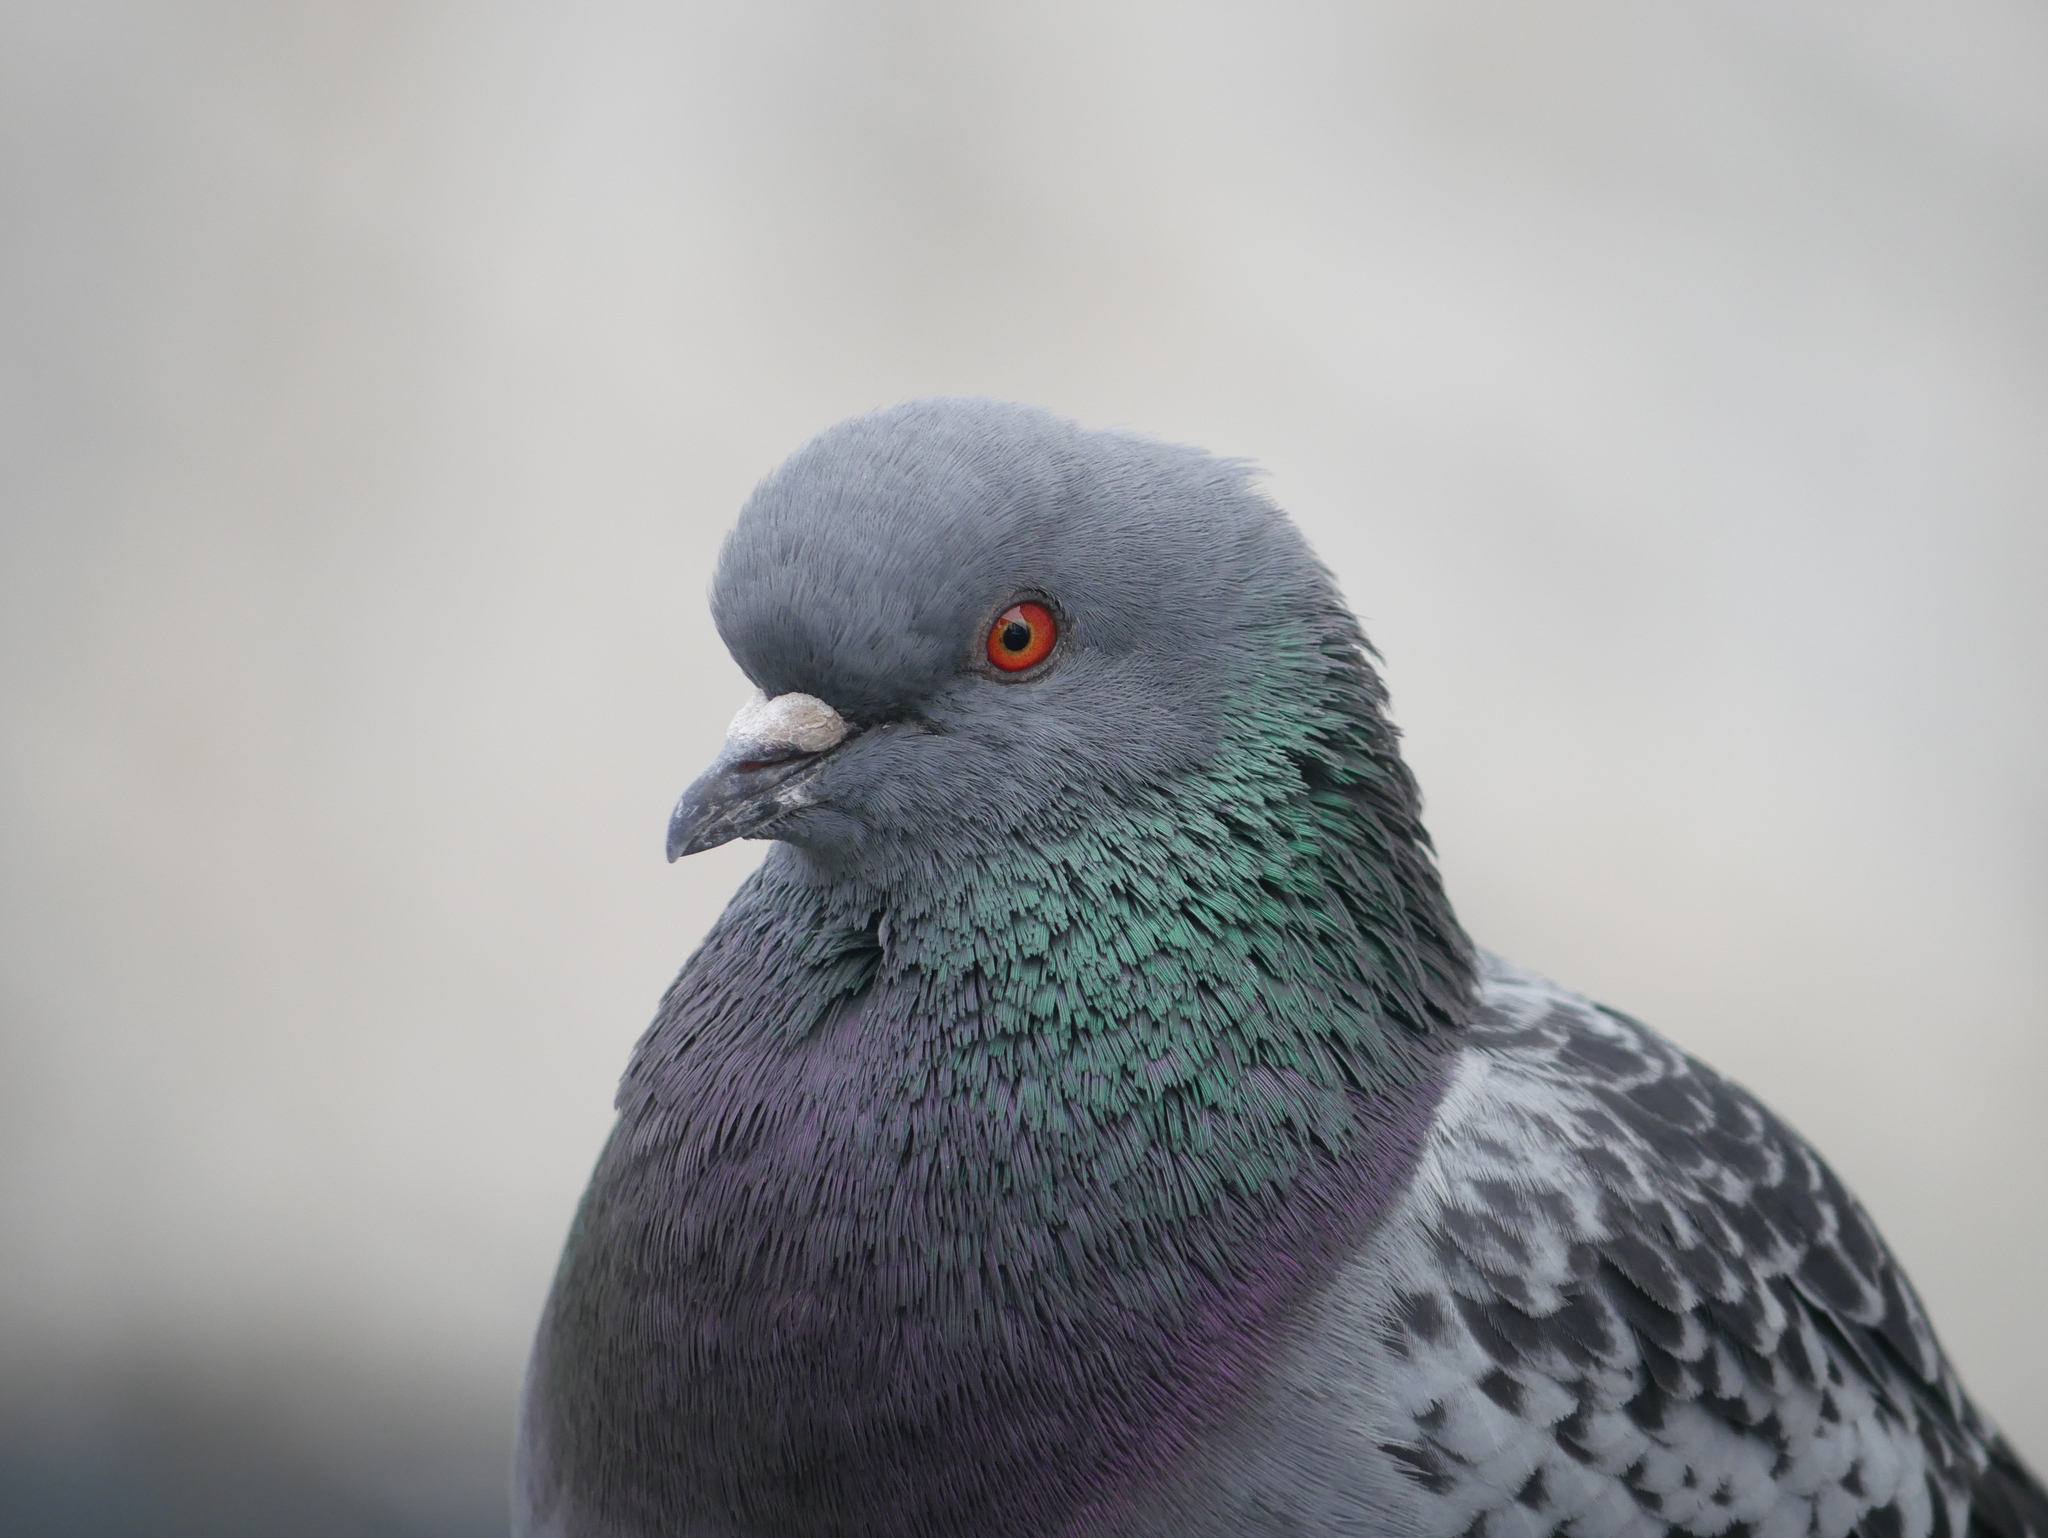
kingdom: Animalia
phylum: Chordata
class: Aves
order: Columbiformes
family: Columbidae
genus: Columba
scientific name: Columba livia
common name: Rock pigeon
